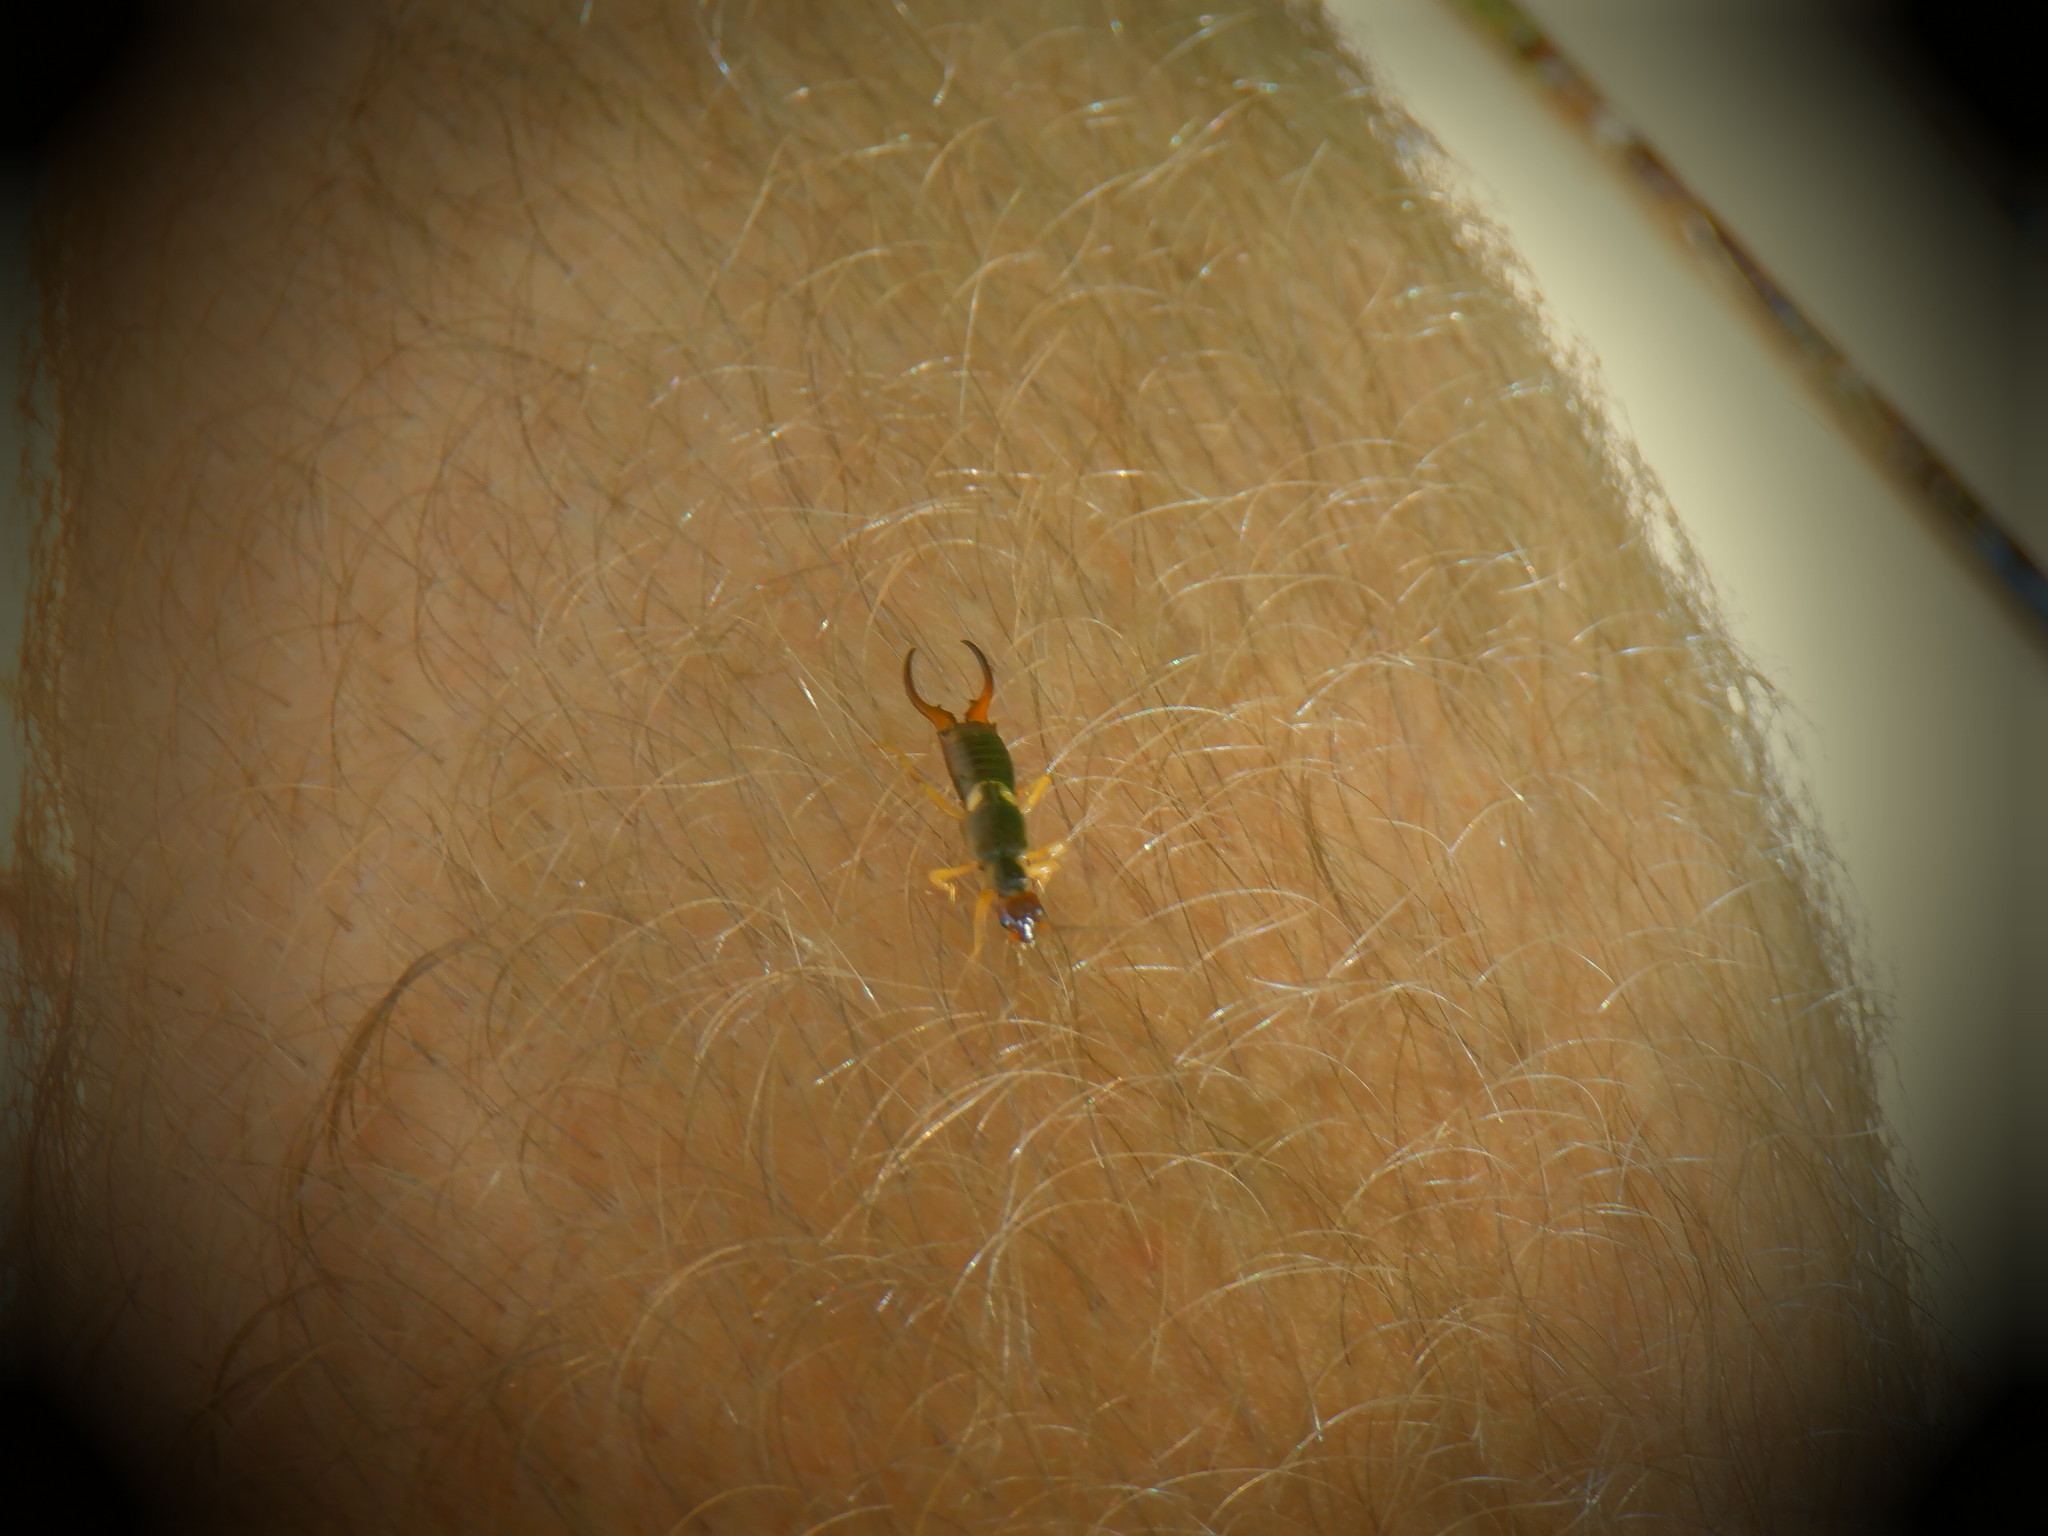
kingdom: Animalia
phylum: Arthropoda
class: Insecta
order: Dermaptera
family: Forficulidae
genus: Forficula
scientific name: Forficula
